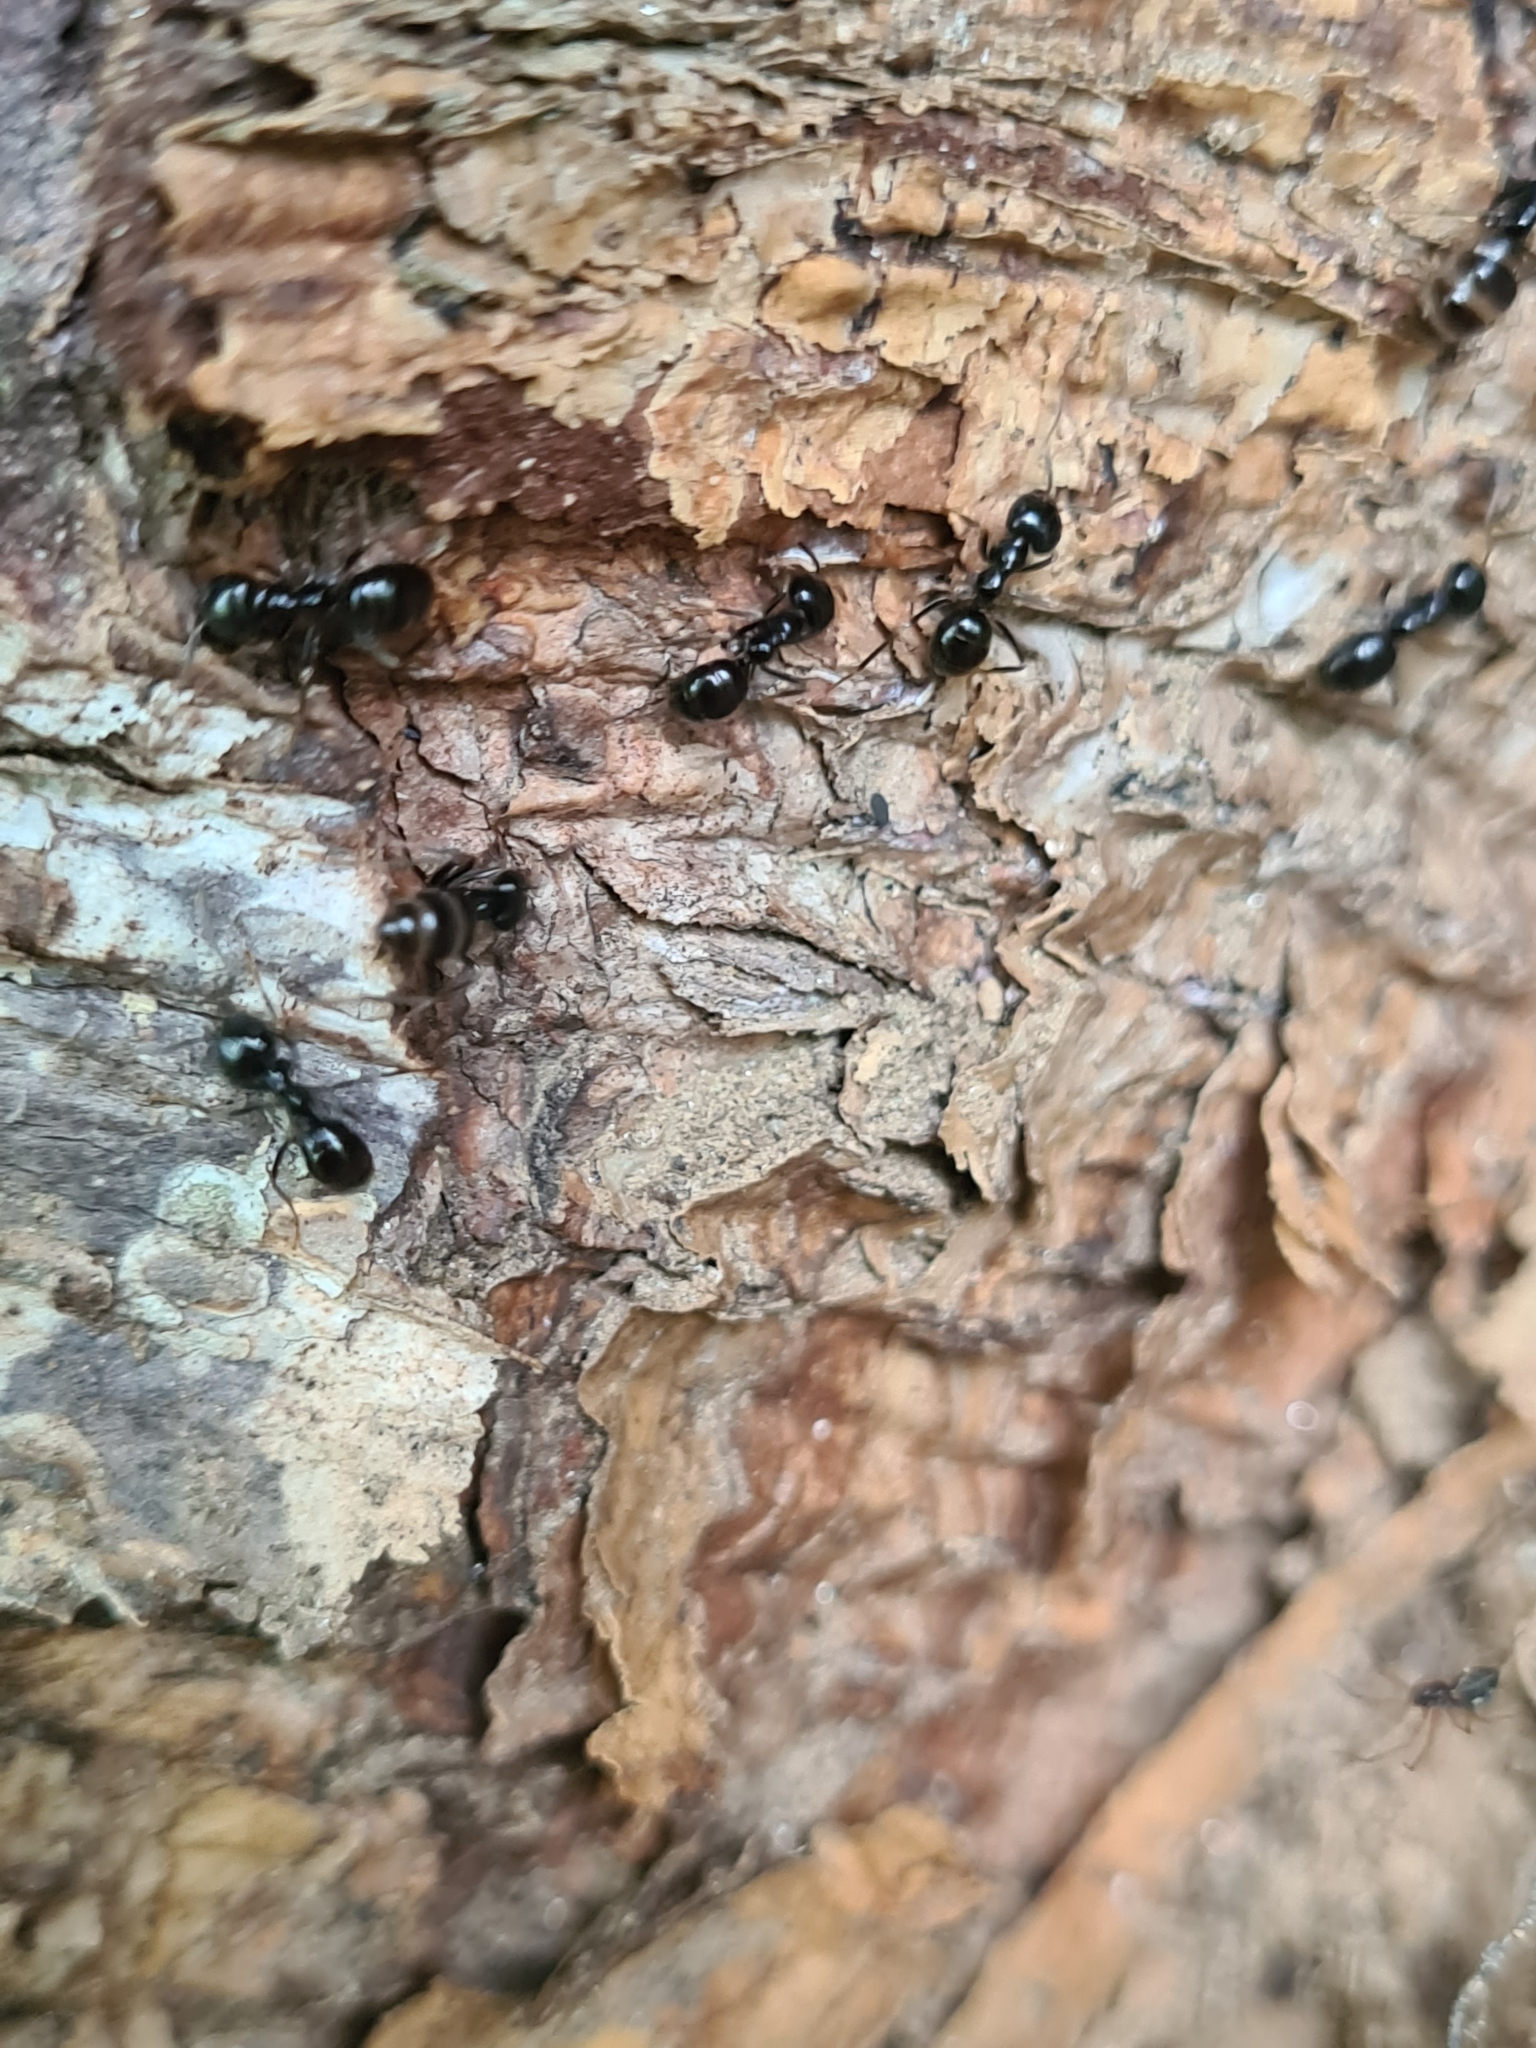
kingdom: Animalia
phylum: Arthropoda
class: Insecta
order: Hymenoptera
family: Formicidae
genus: Lasius
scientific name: Lasius fuliginosus
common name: Jet ant
